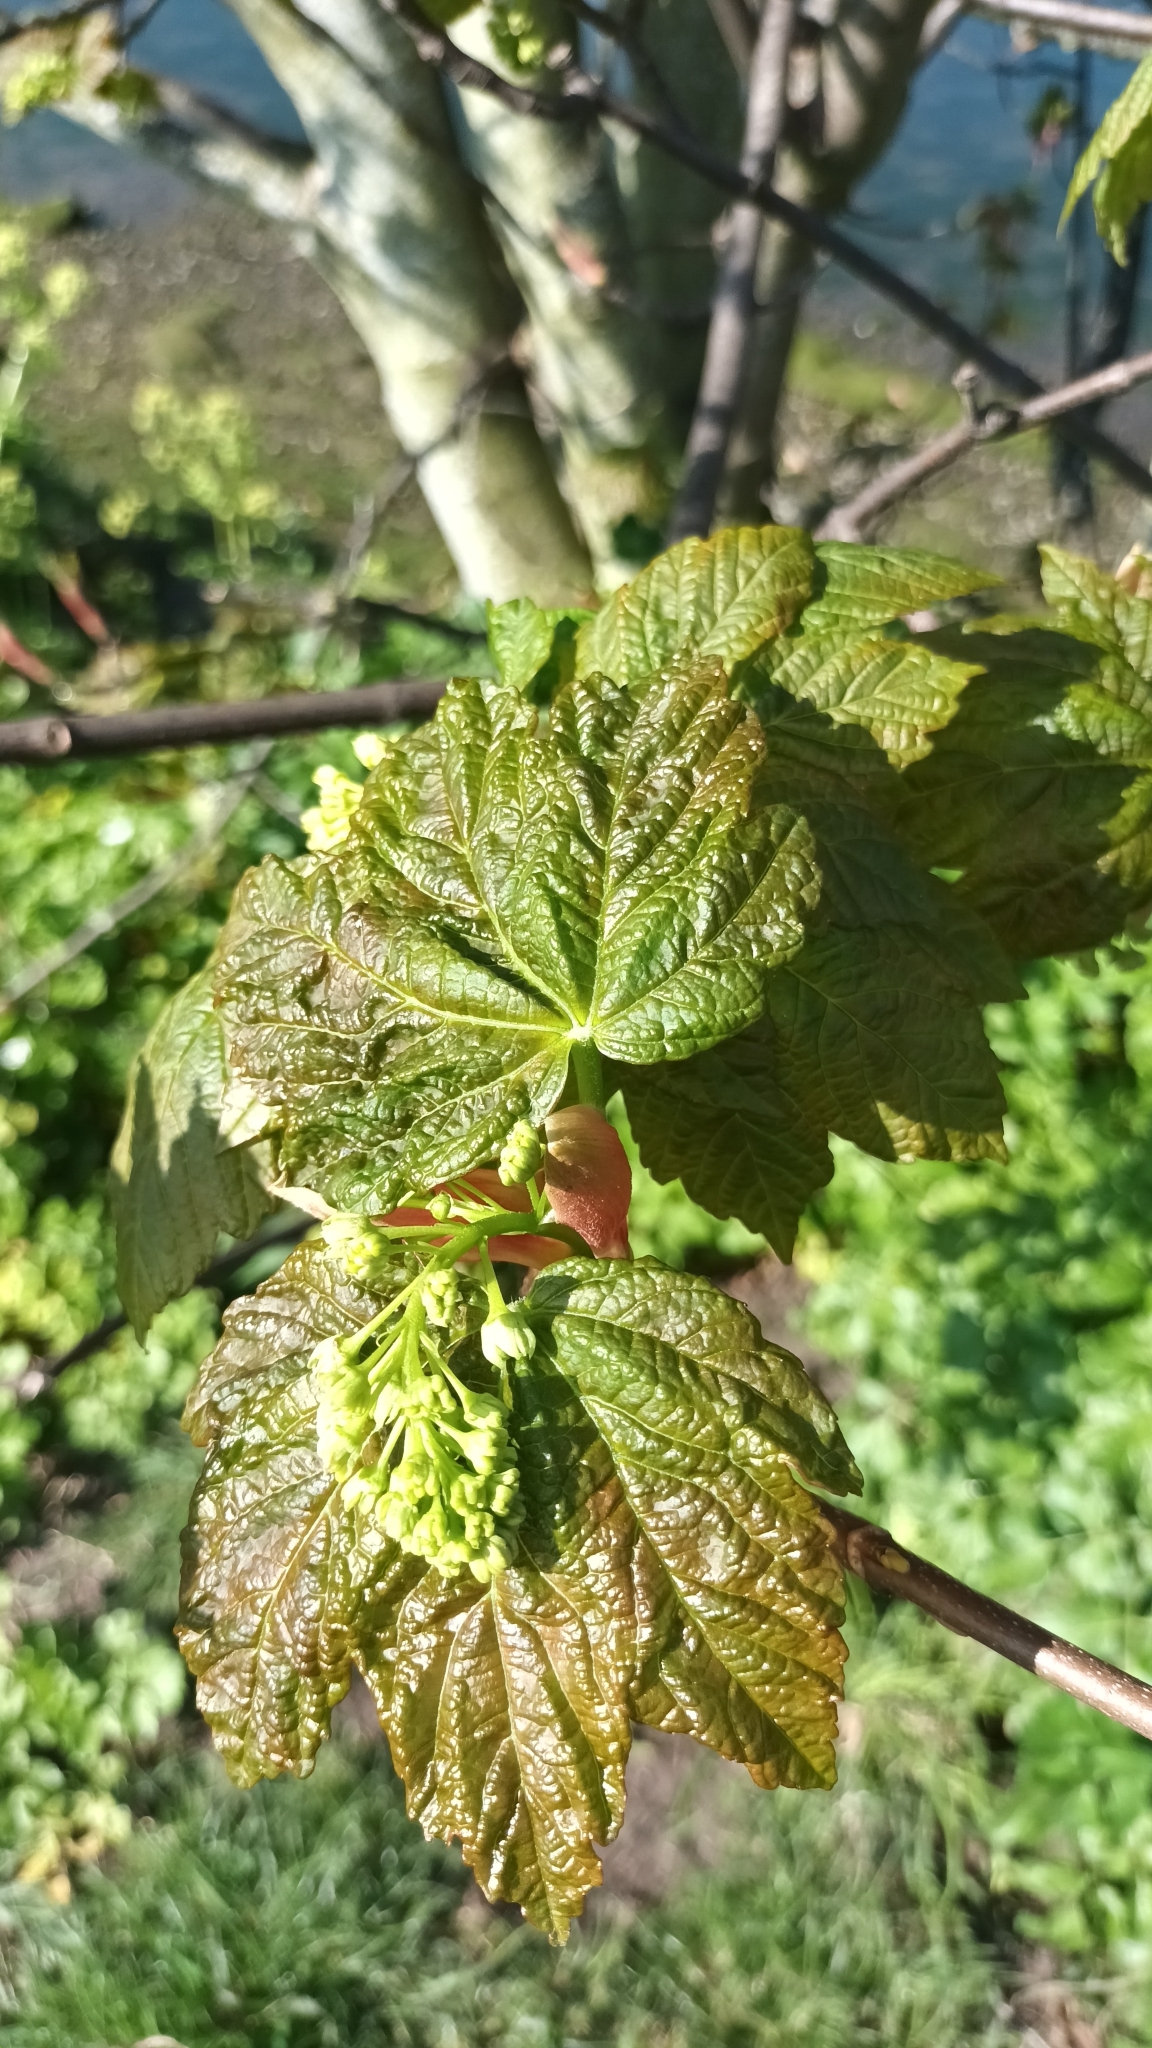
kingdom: Plantae
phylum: Tracheophyta
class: Magnoliopsida
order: Sapindales
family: Sapindaceae
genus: Acer
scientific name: Acer pseudoplatanus
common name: Sycamore
